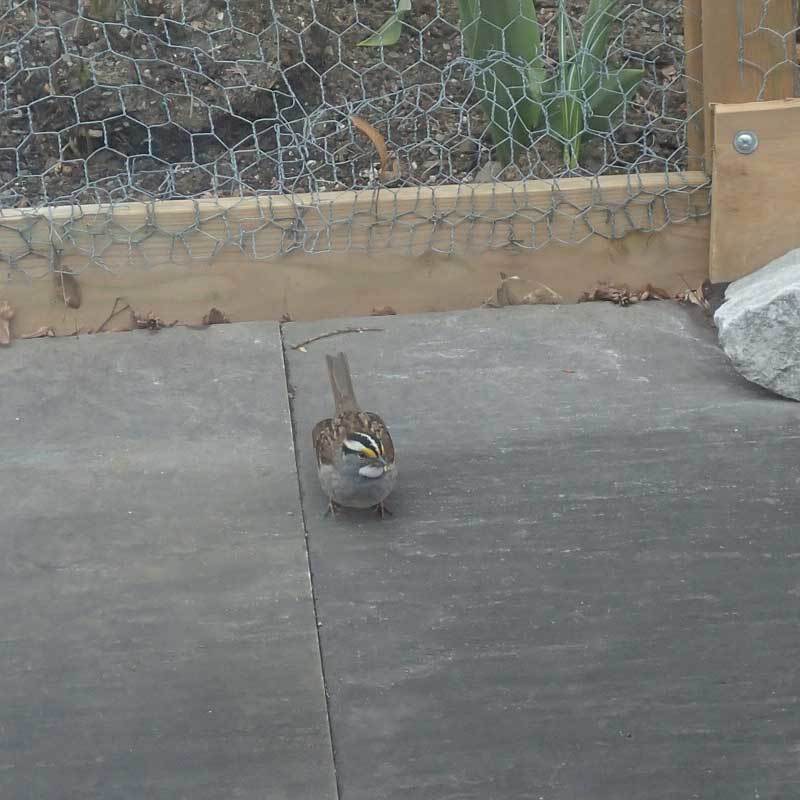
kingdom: Animalia
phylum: Chordata
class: Aves
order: Passeriformes
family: Passerellidae
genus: Zonotrichia
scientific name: Zonotrichia albicollis
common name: White-throated sparrow
